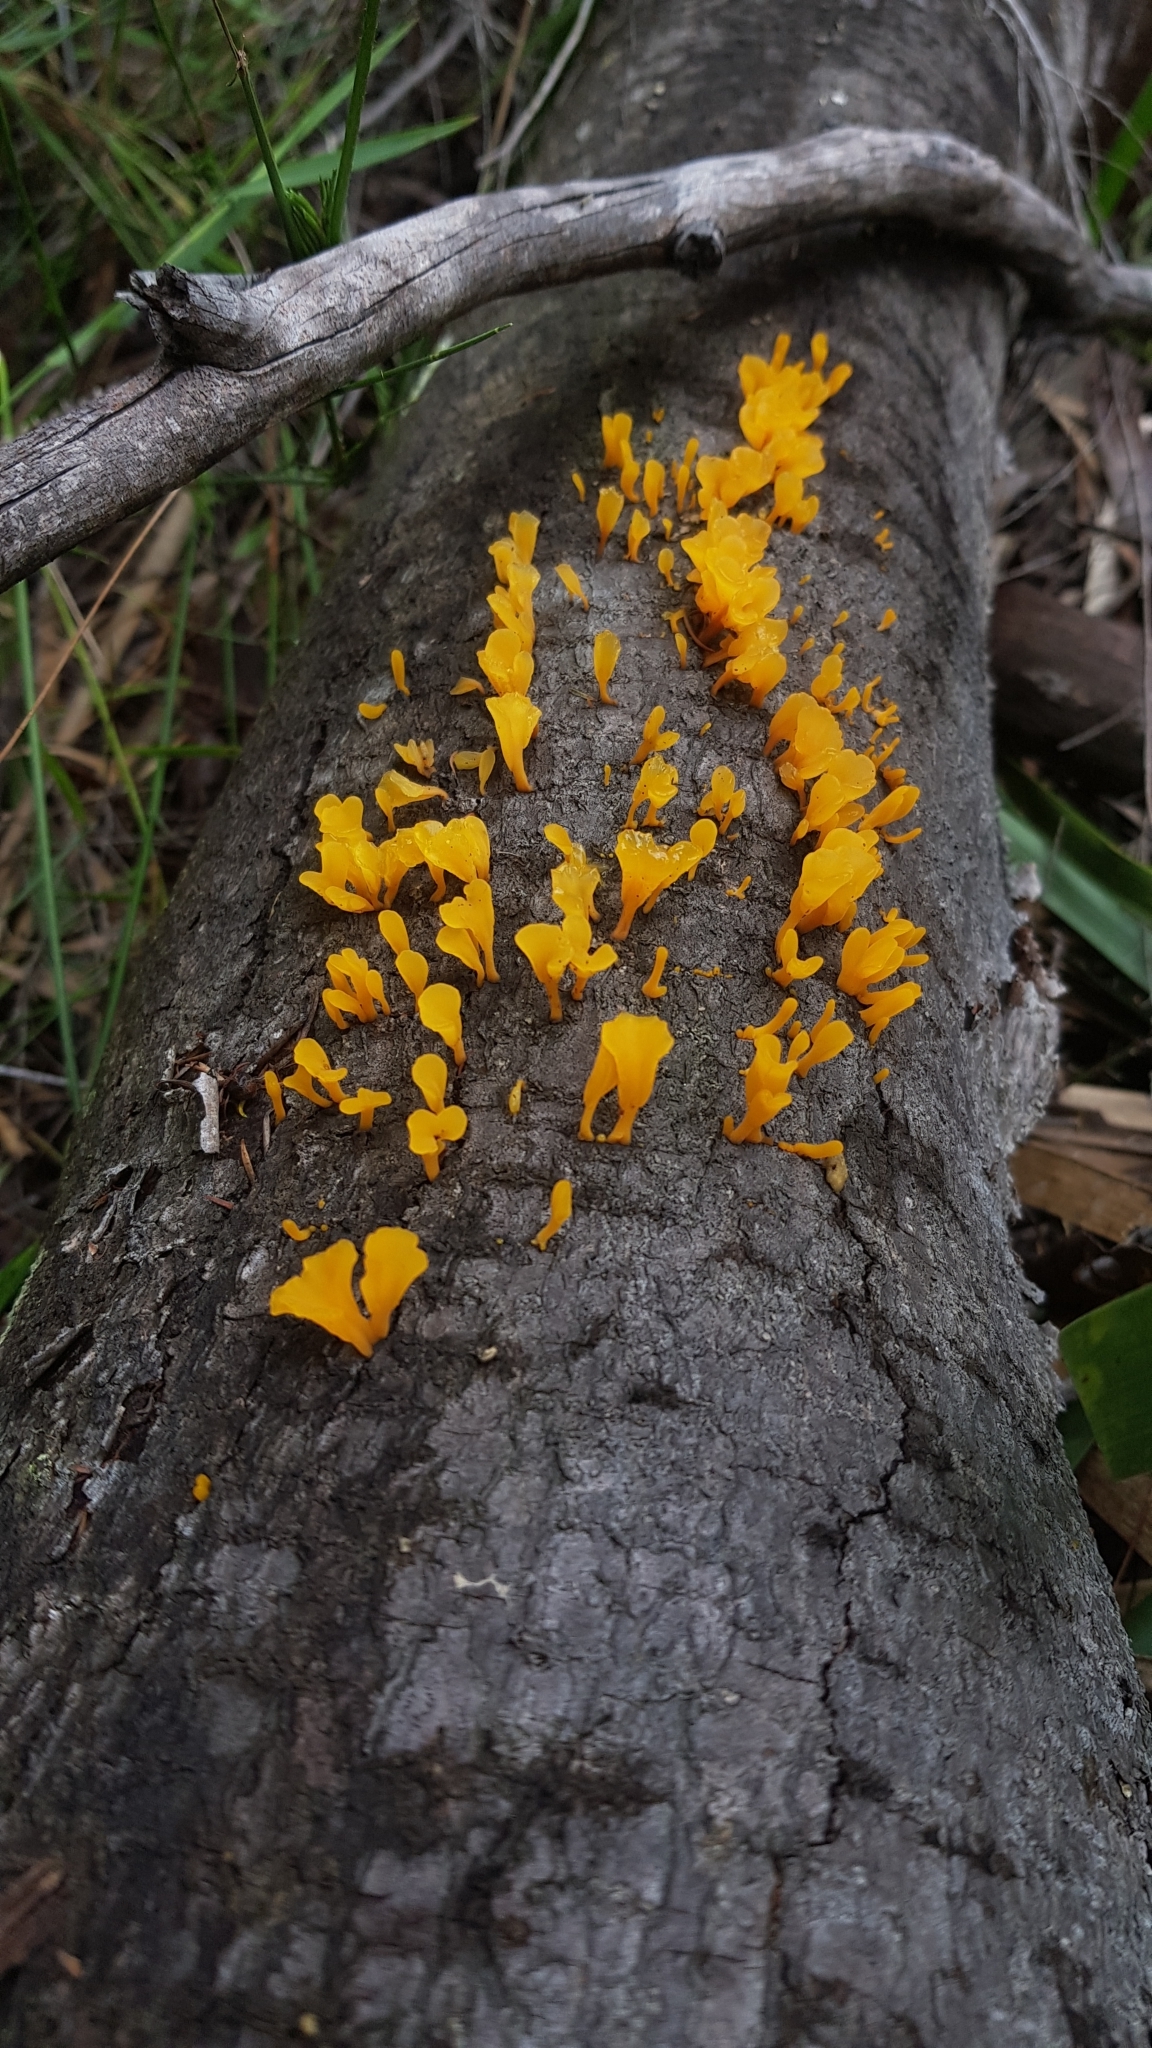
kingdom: Fungi
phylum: Basidiomycota
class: Dacrymycetes
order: Dacrymycetales
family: Dacrymycetaceae
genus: Dacrymyces
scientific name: Dacrymyces spathularius
